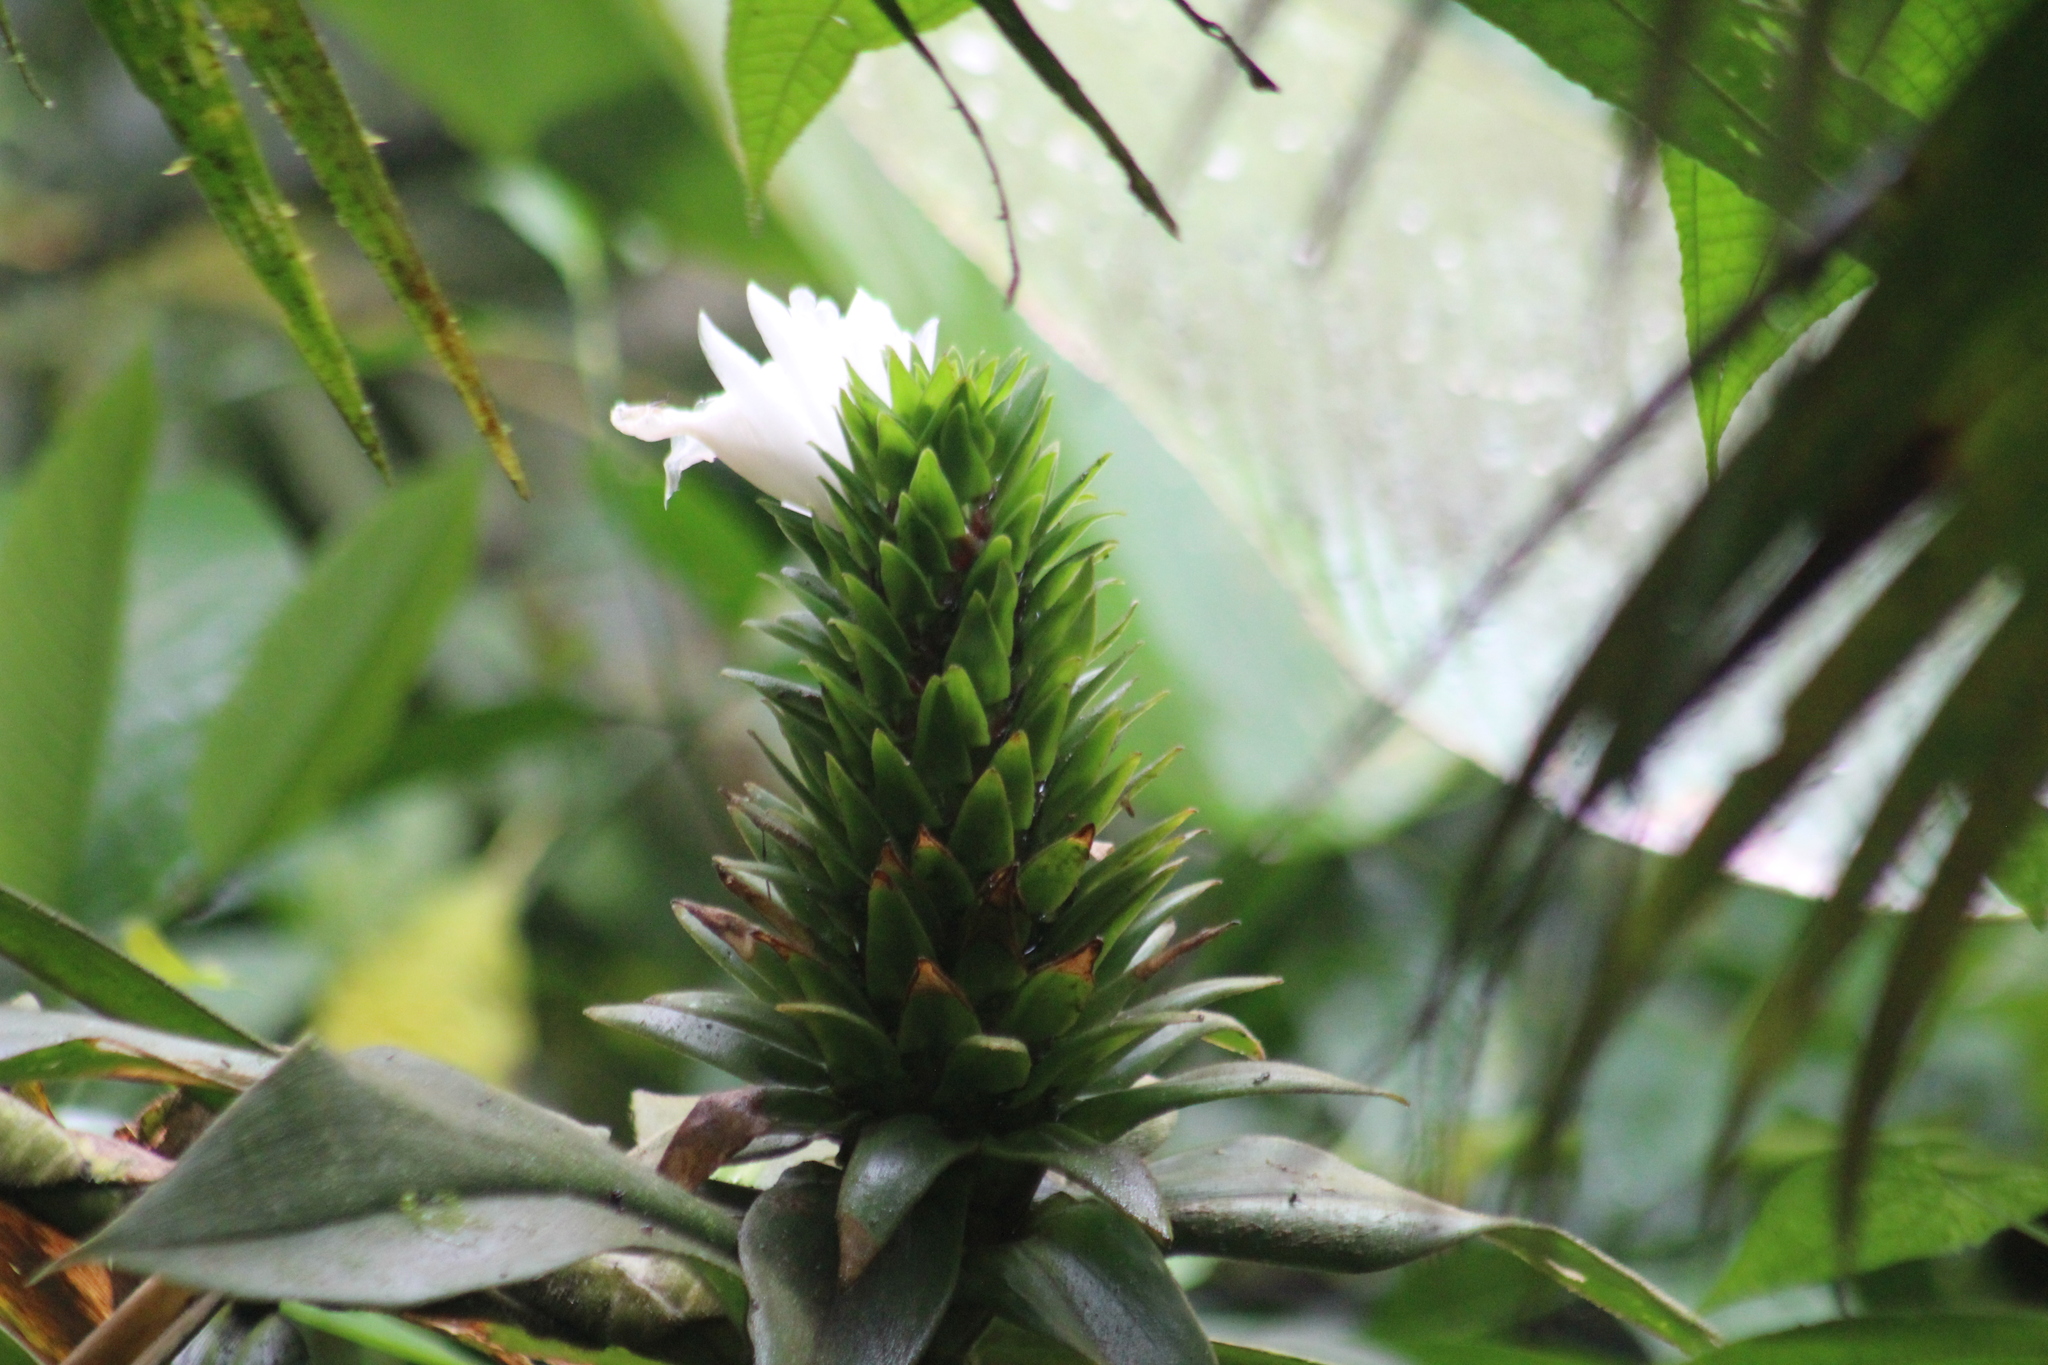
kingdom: Plantae
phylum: Tracheophyta
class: Liliopsida
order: Zingiberales
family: Costaceae
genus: Costus
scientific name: Costus leucanthus
